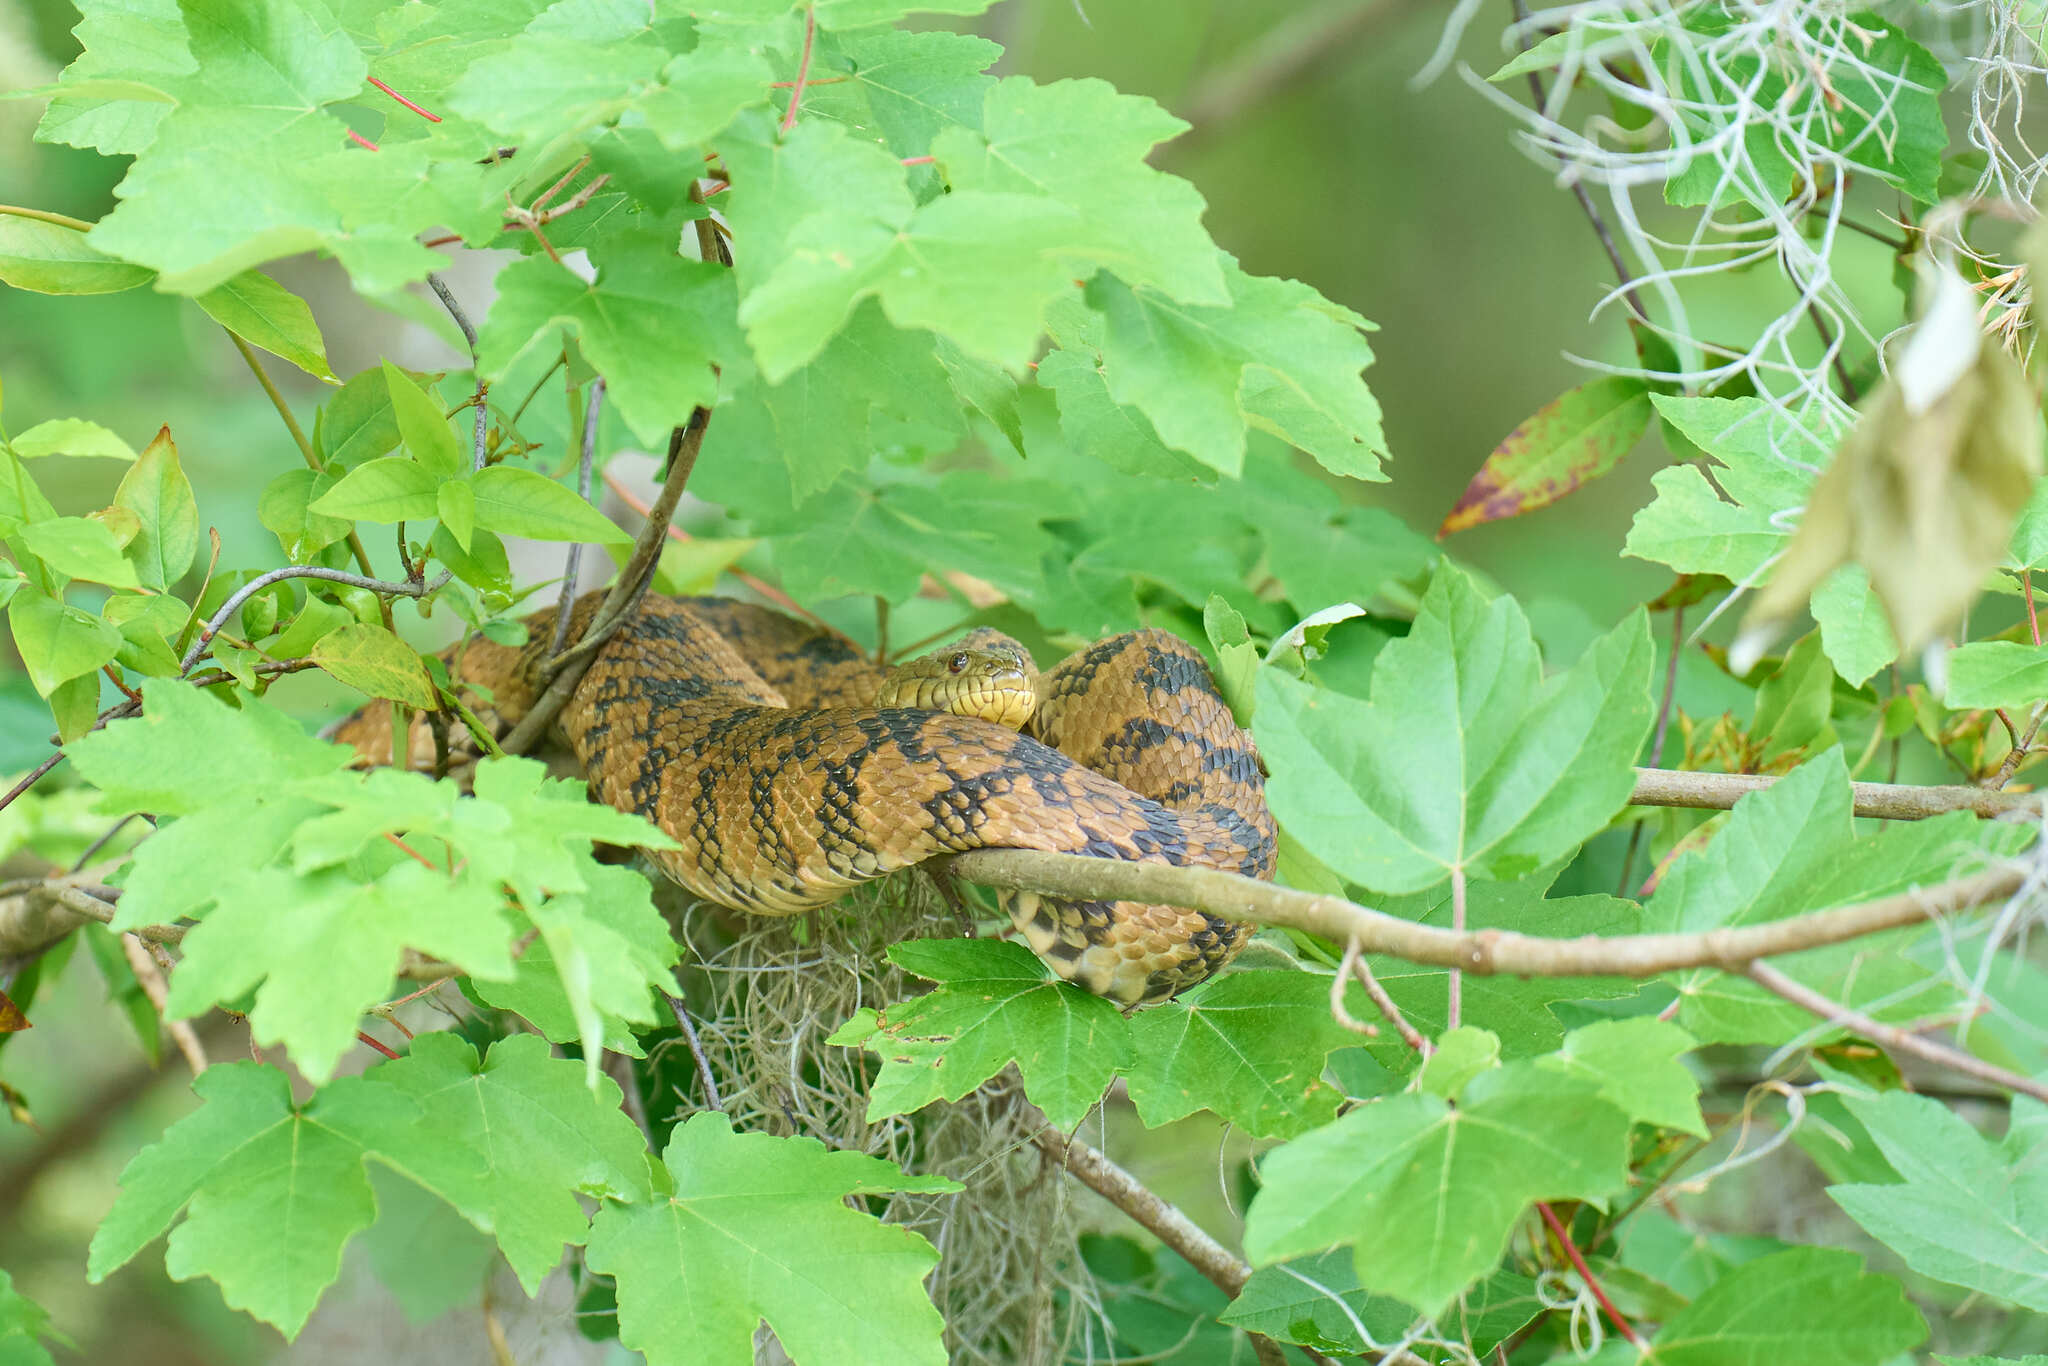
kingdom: Animalia
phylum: Chordata
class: Squamata
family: Colubridae
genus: Nerodia
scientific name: Nerodia rhombifer
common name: Diamondback water snake
